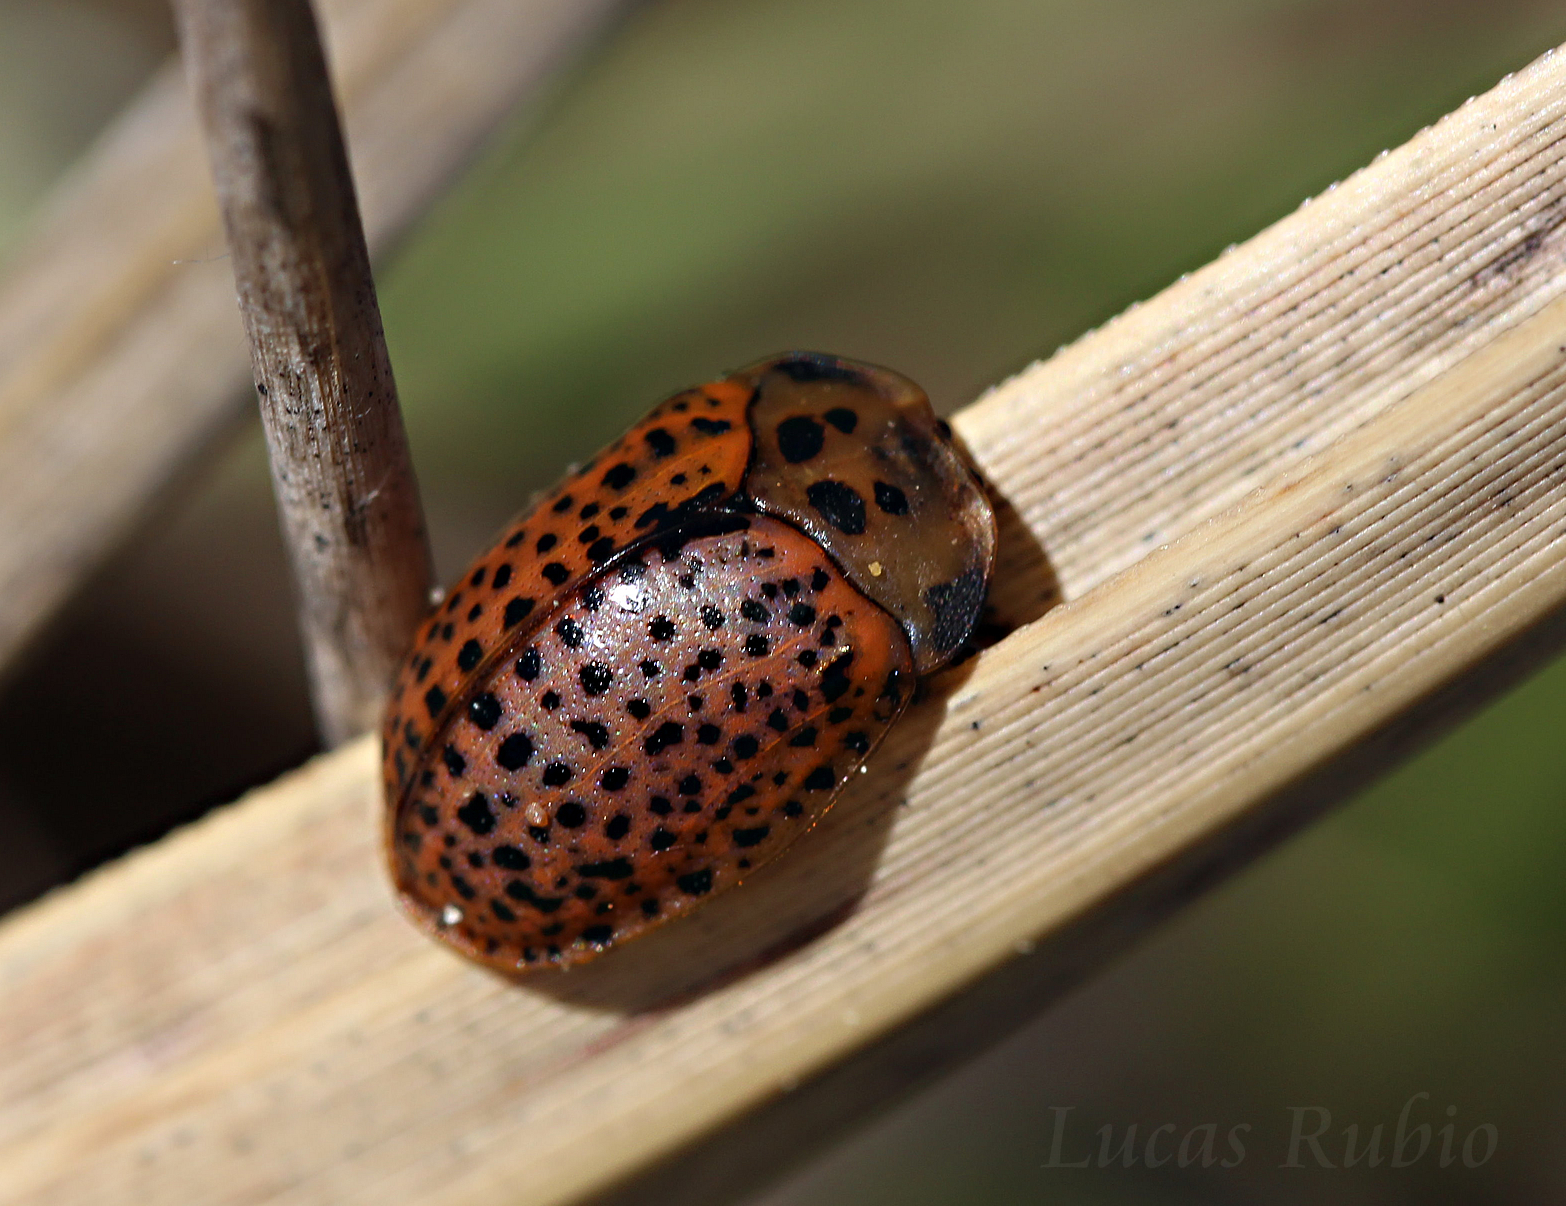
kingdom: Animalia
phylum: Arthropoda
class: Insecta
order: Coleoptera
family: Chrysomelidae
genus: Chelymorpha
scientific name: Chelymorpha varians
